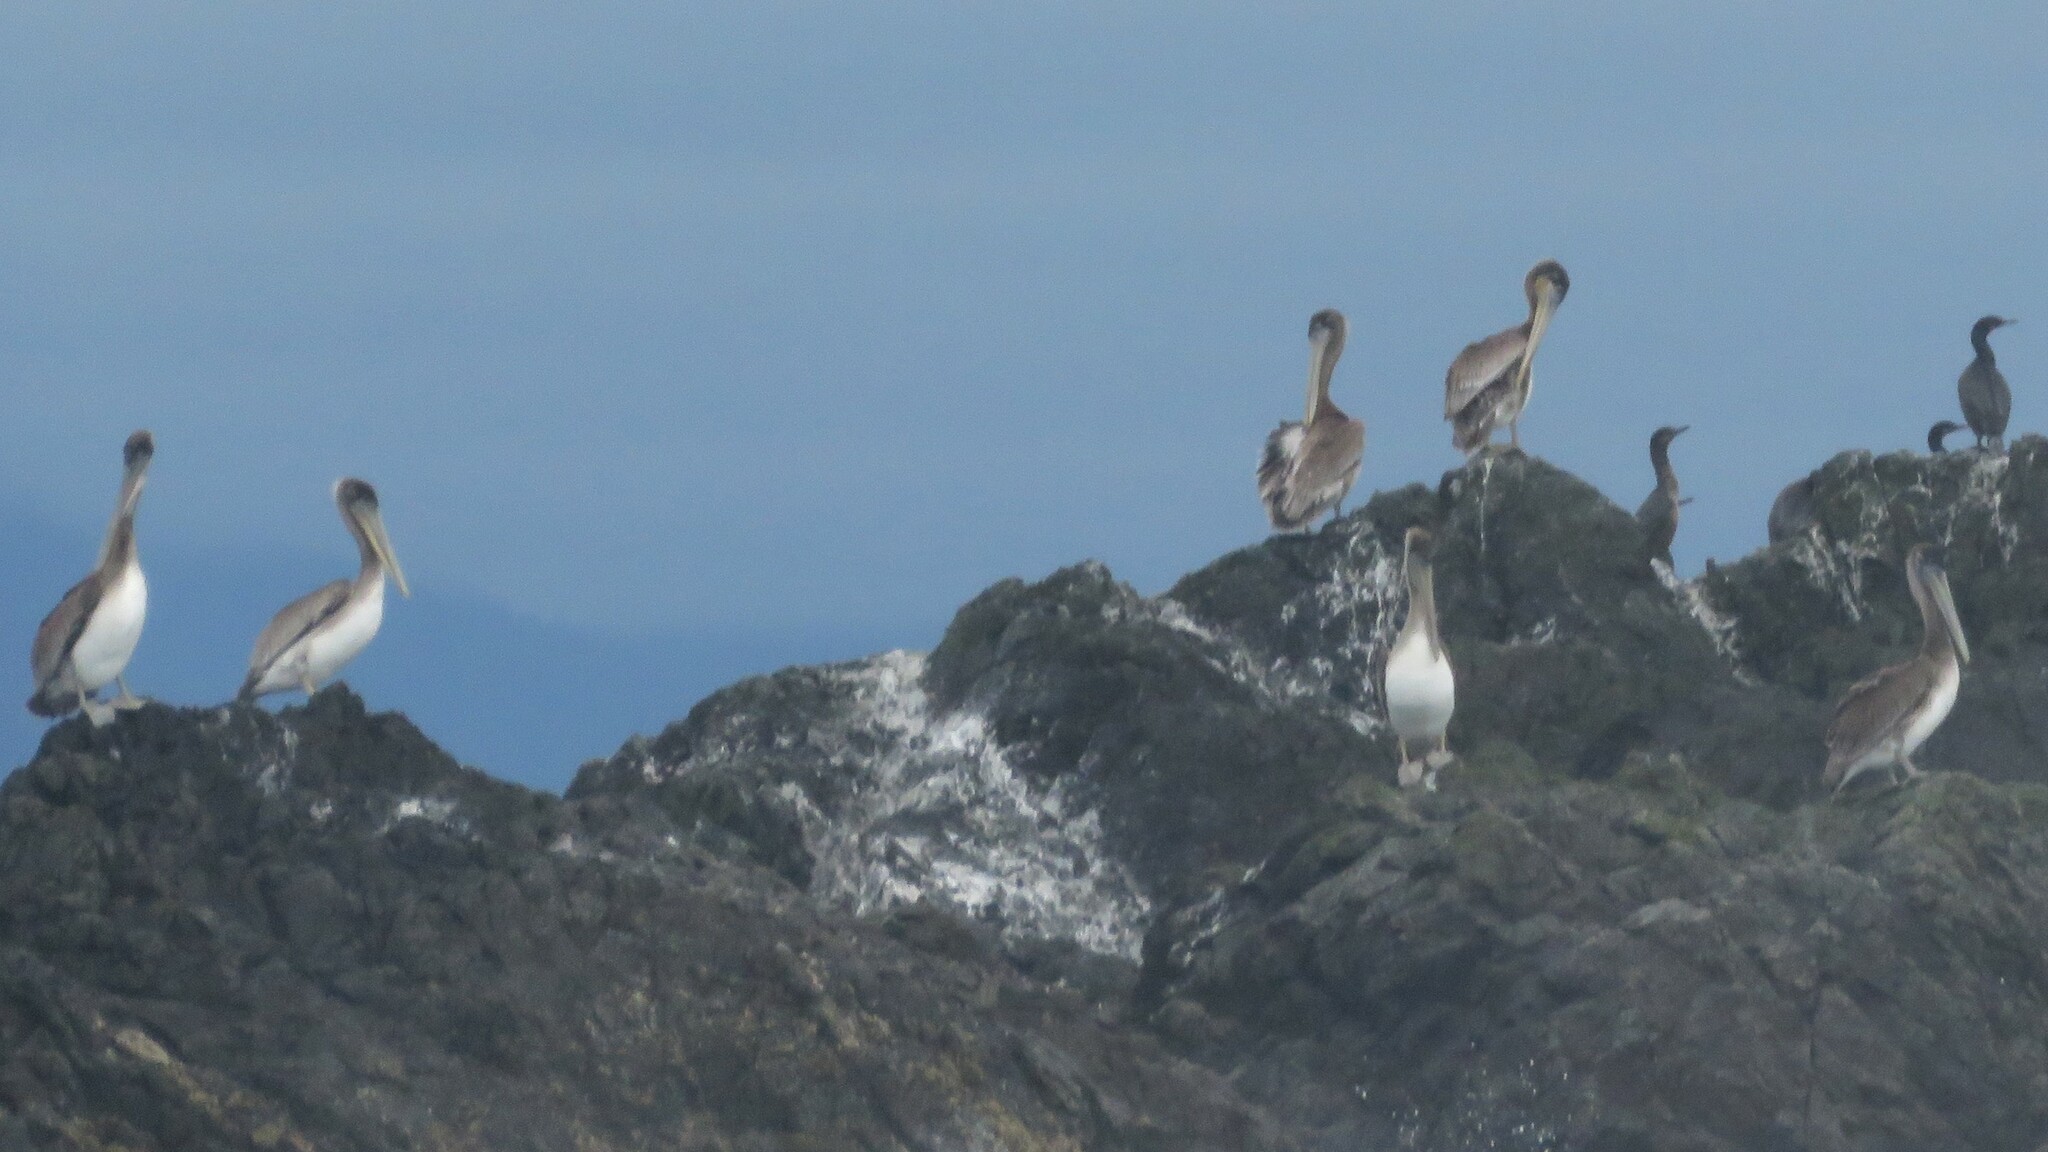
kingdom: Animalia
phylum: Chordata
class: Aves
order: Pelecaniformes
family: Pelecanidae
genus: Pelecanus
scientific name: Pelecanus occidentalis
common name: Brown pelican
